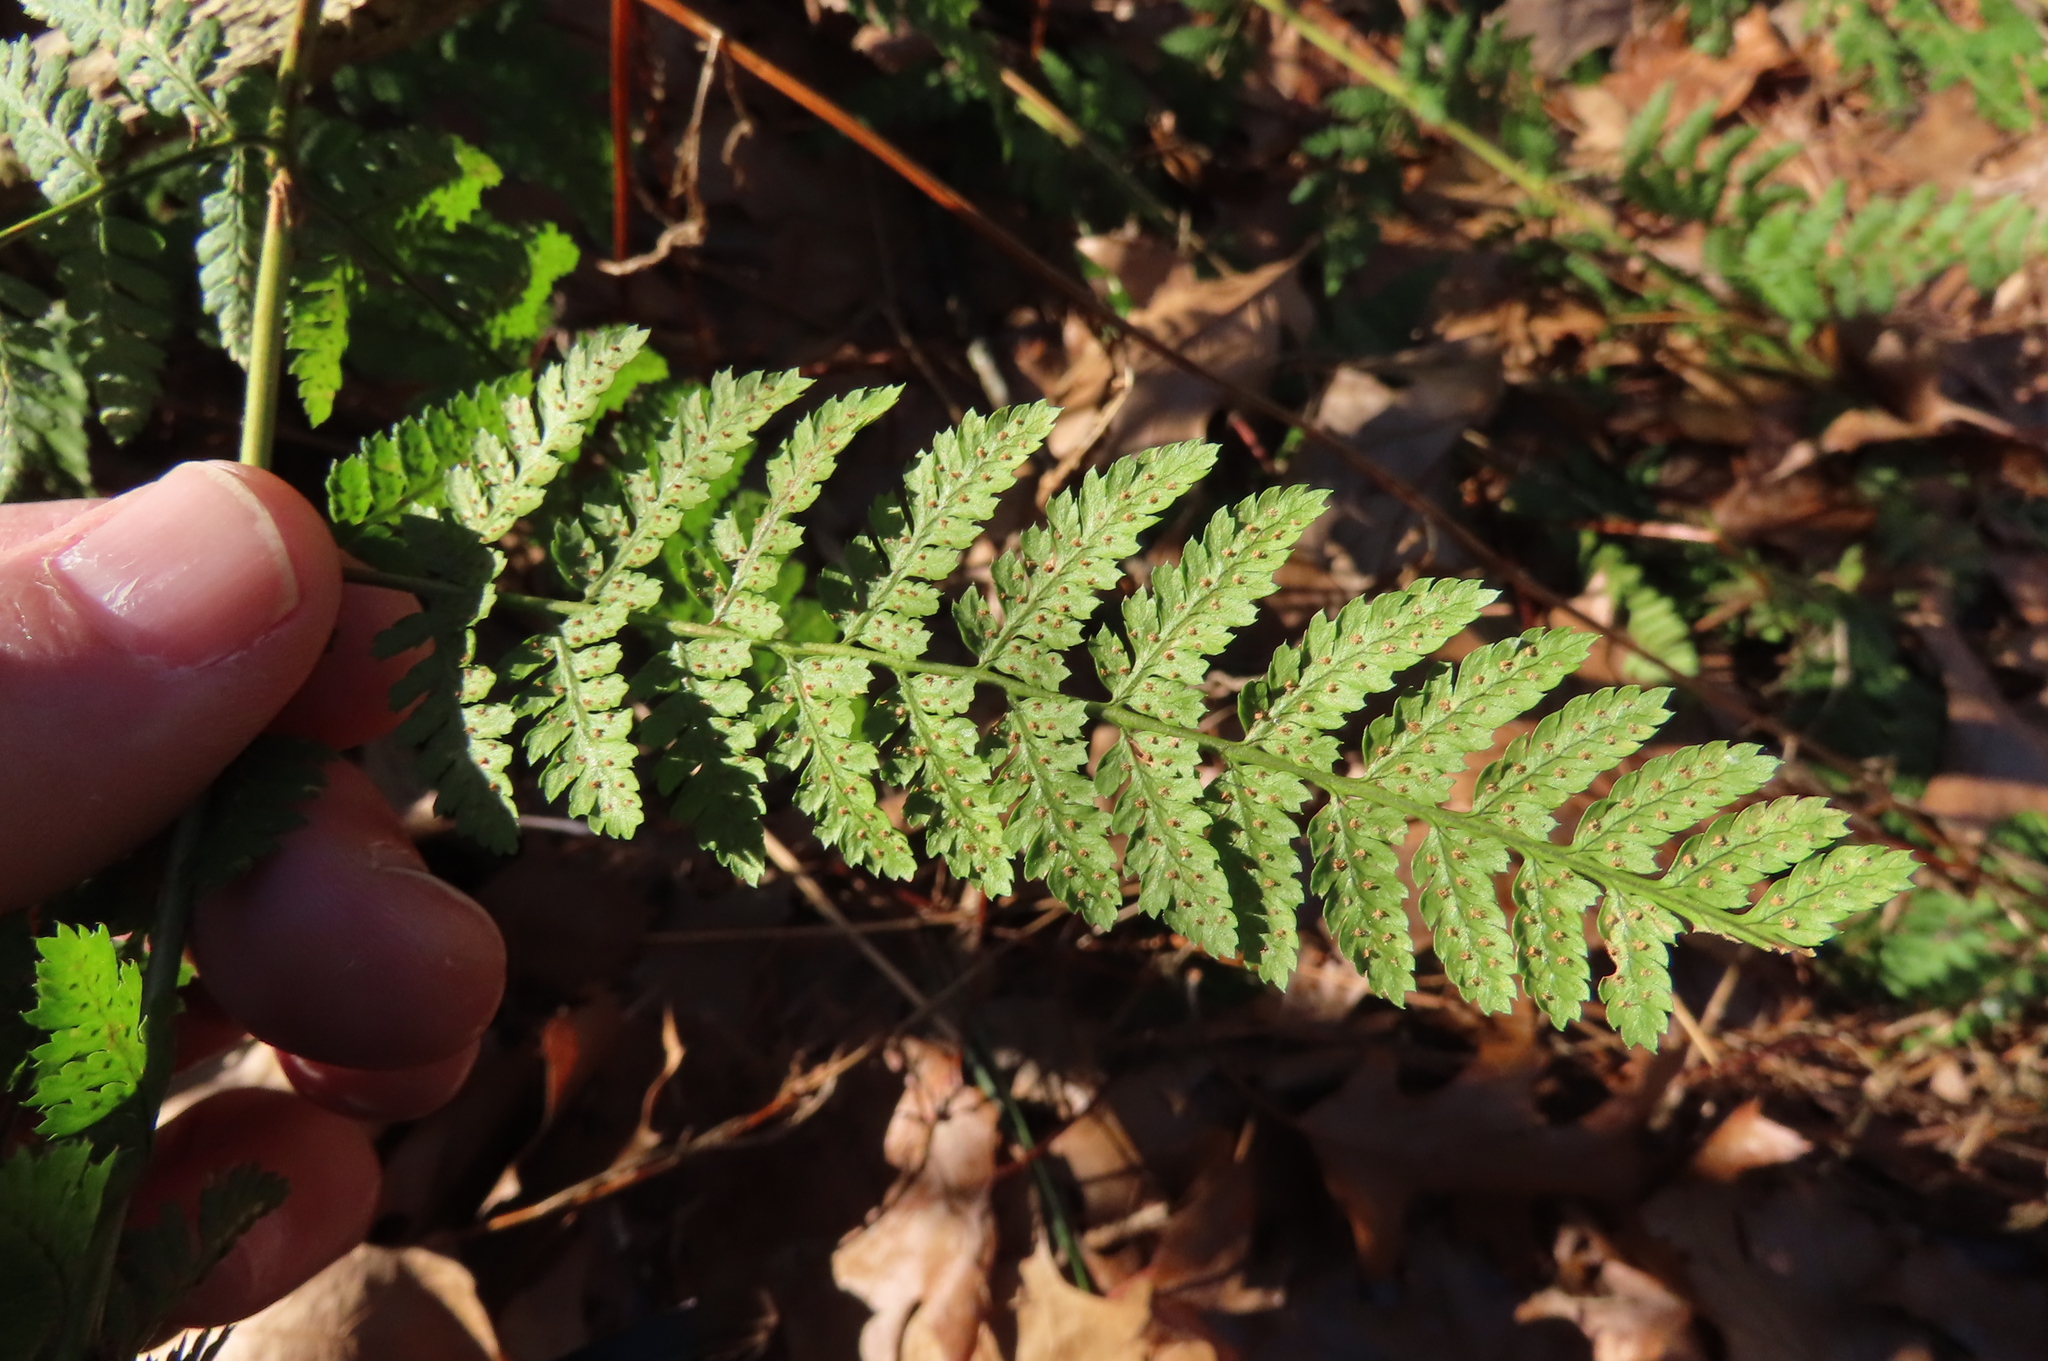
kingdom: Plantae
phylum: Tracheophyta
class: Polypodiopsida
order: Polypodiales
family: Dryopteridaceae
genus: Dryopteris
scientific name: Dryopteris intermedia
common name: Evergreen wood fern
